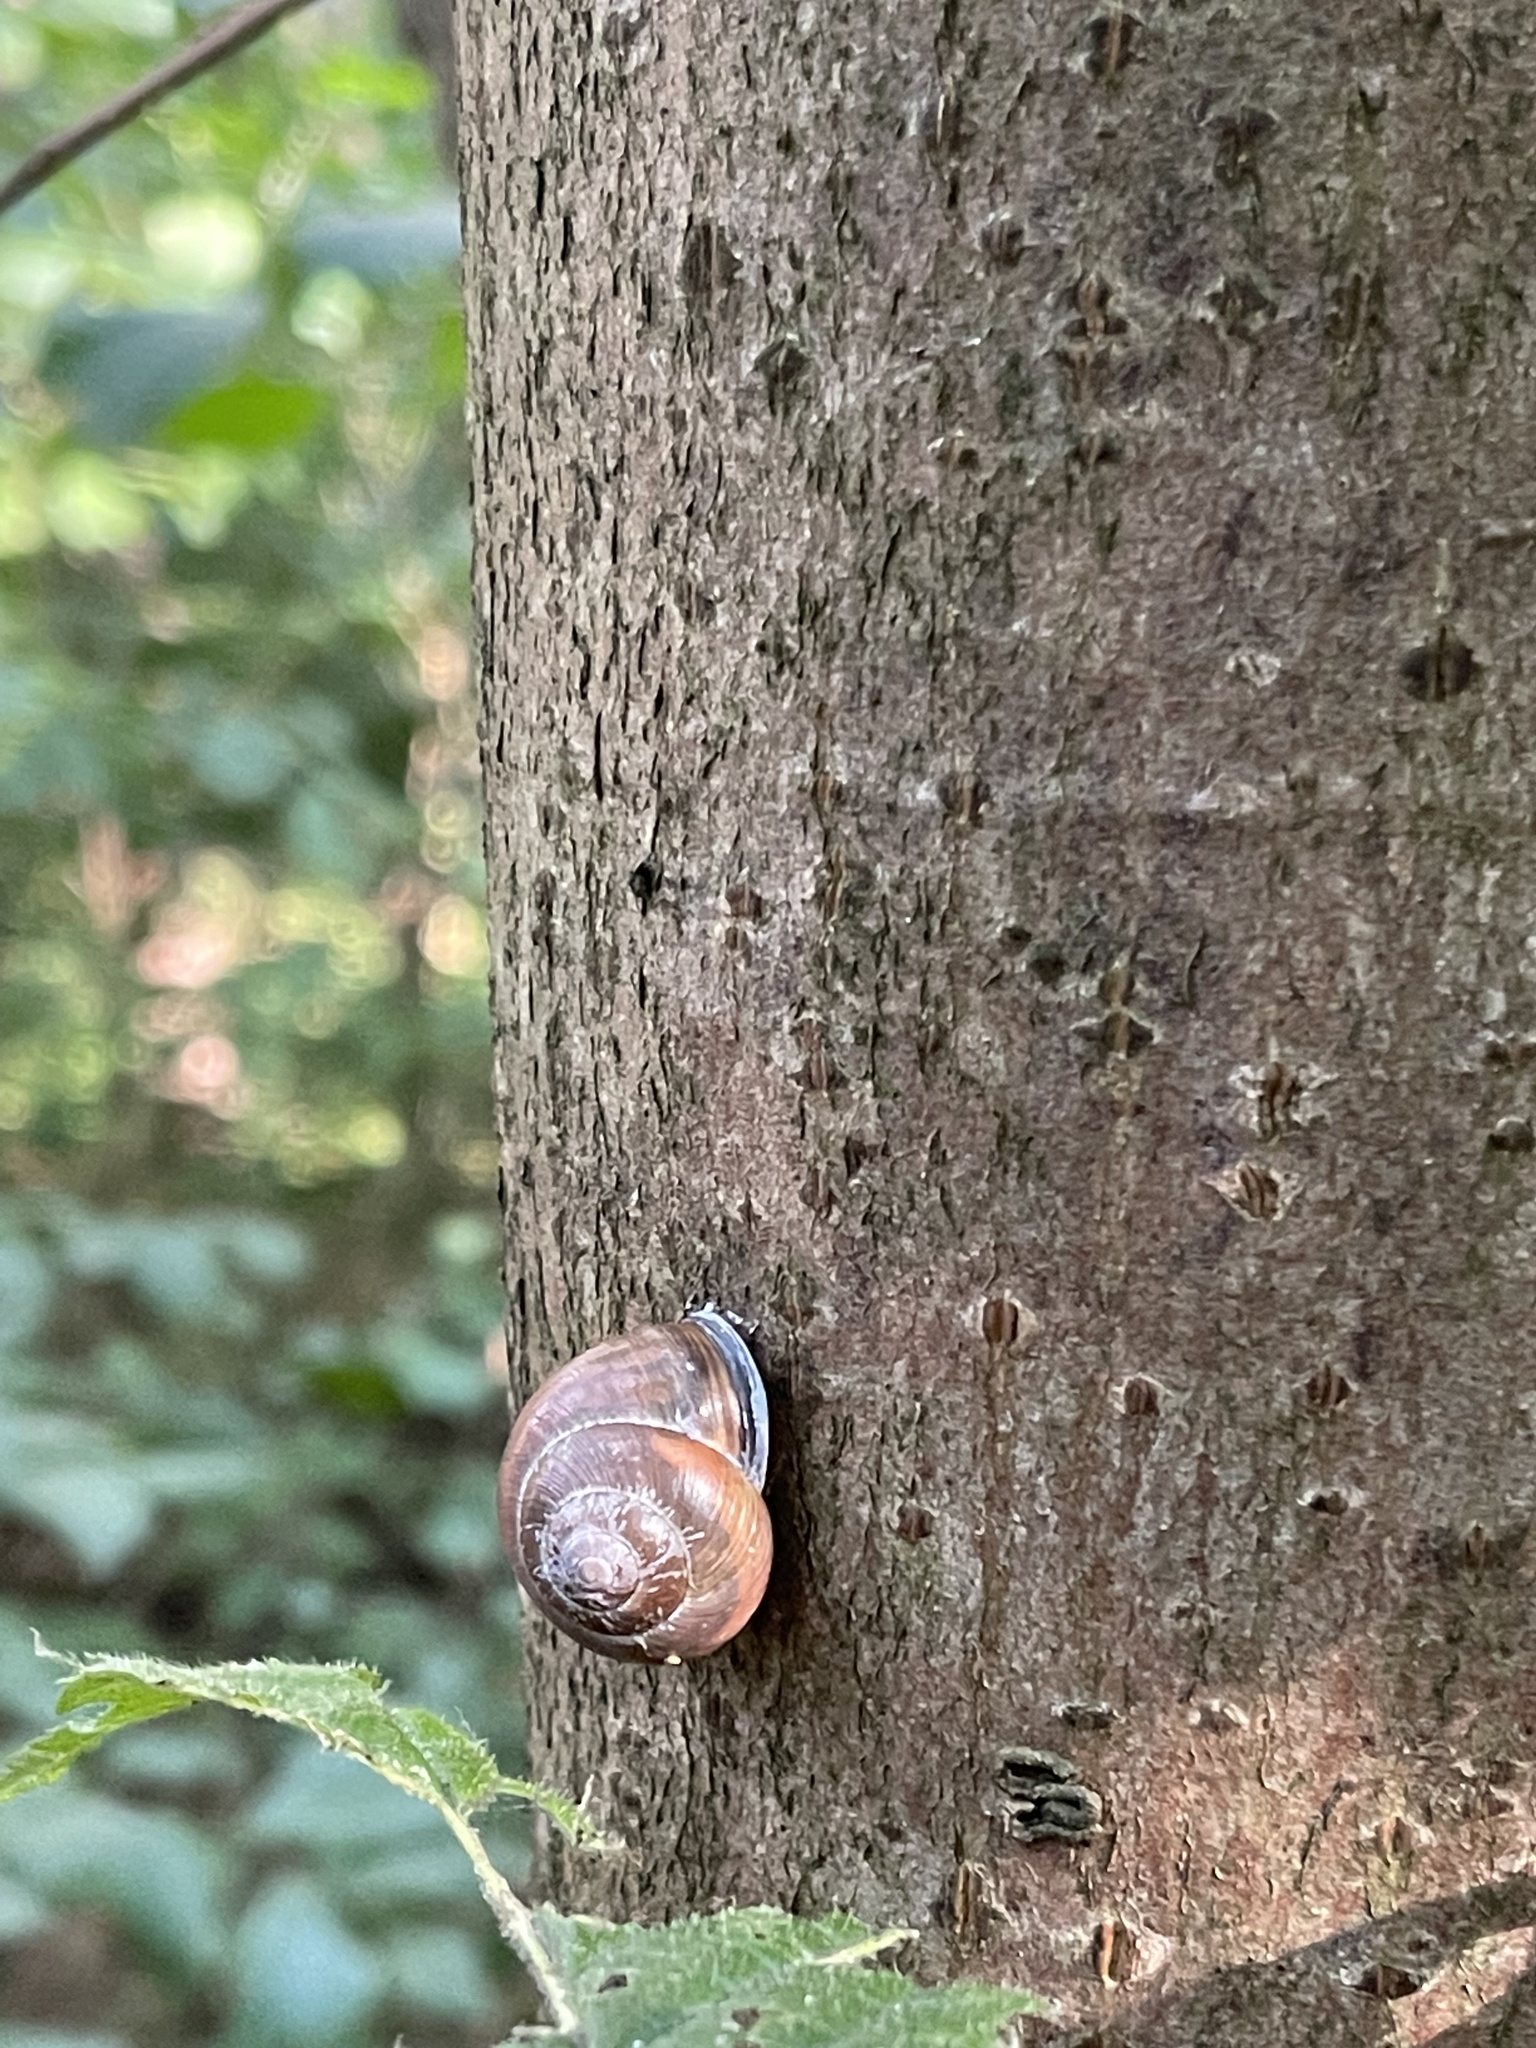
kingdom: Animalia
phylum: Mollusca
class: Gastropoda
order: Stylommatophora
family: Helicidae
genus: Cepaea
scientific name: Cepaea nemoralis
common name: Grovesnail
